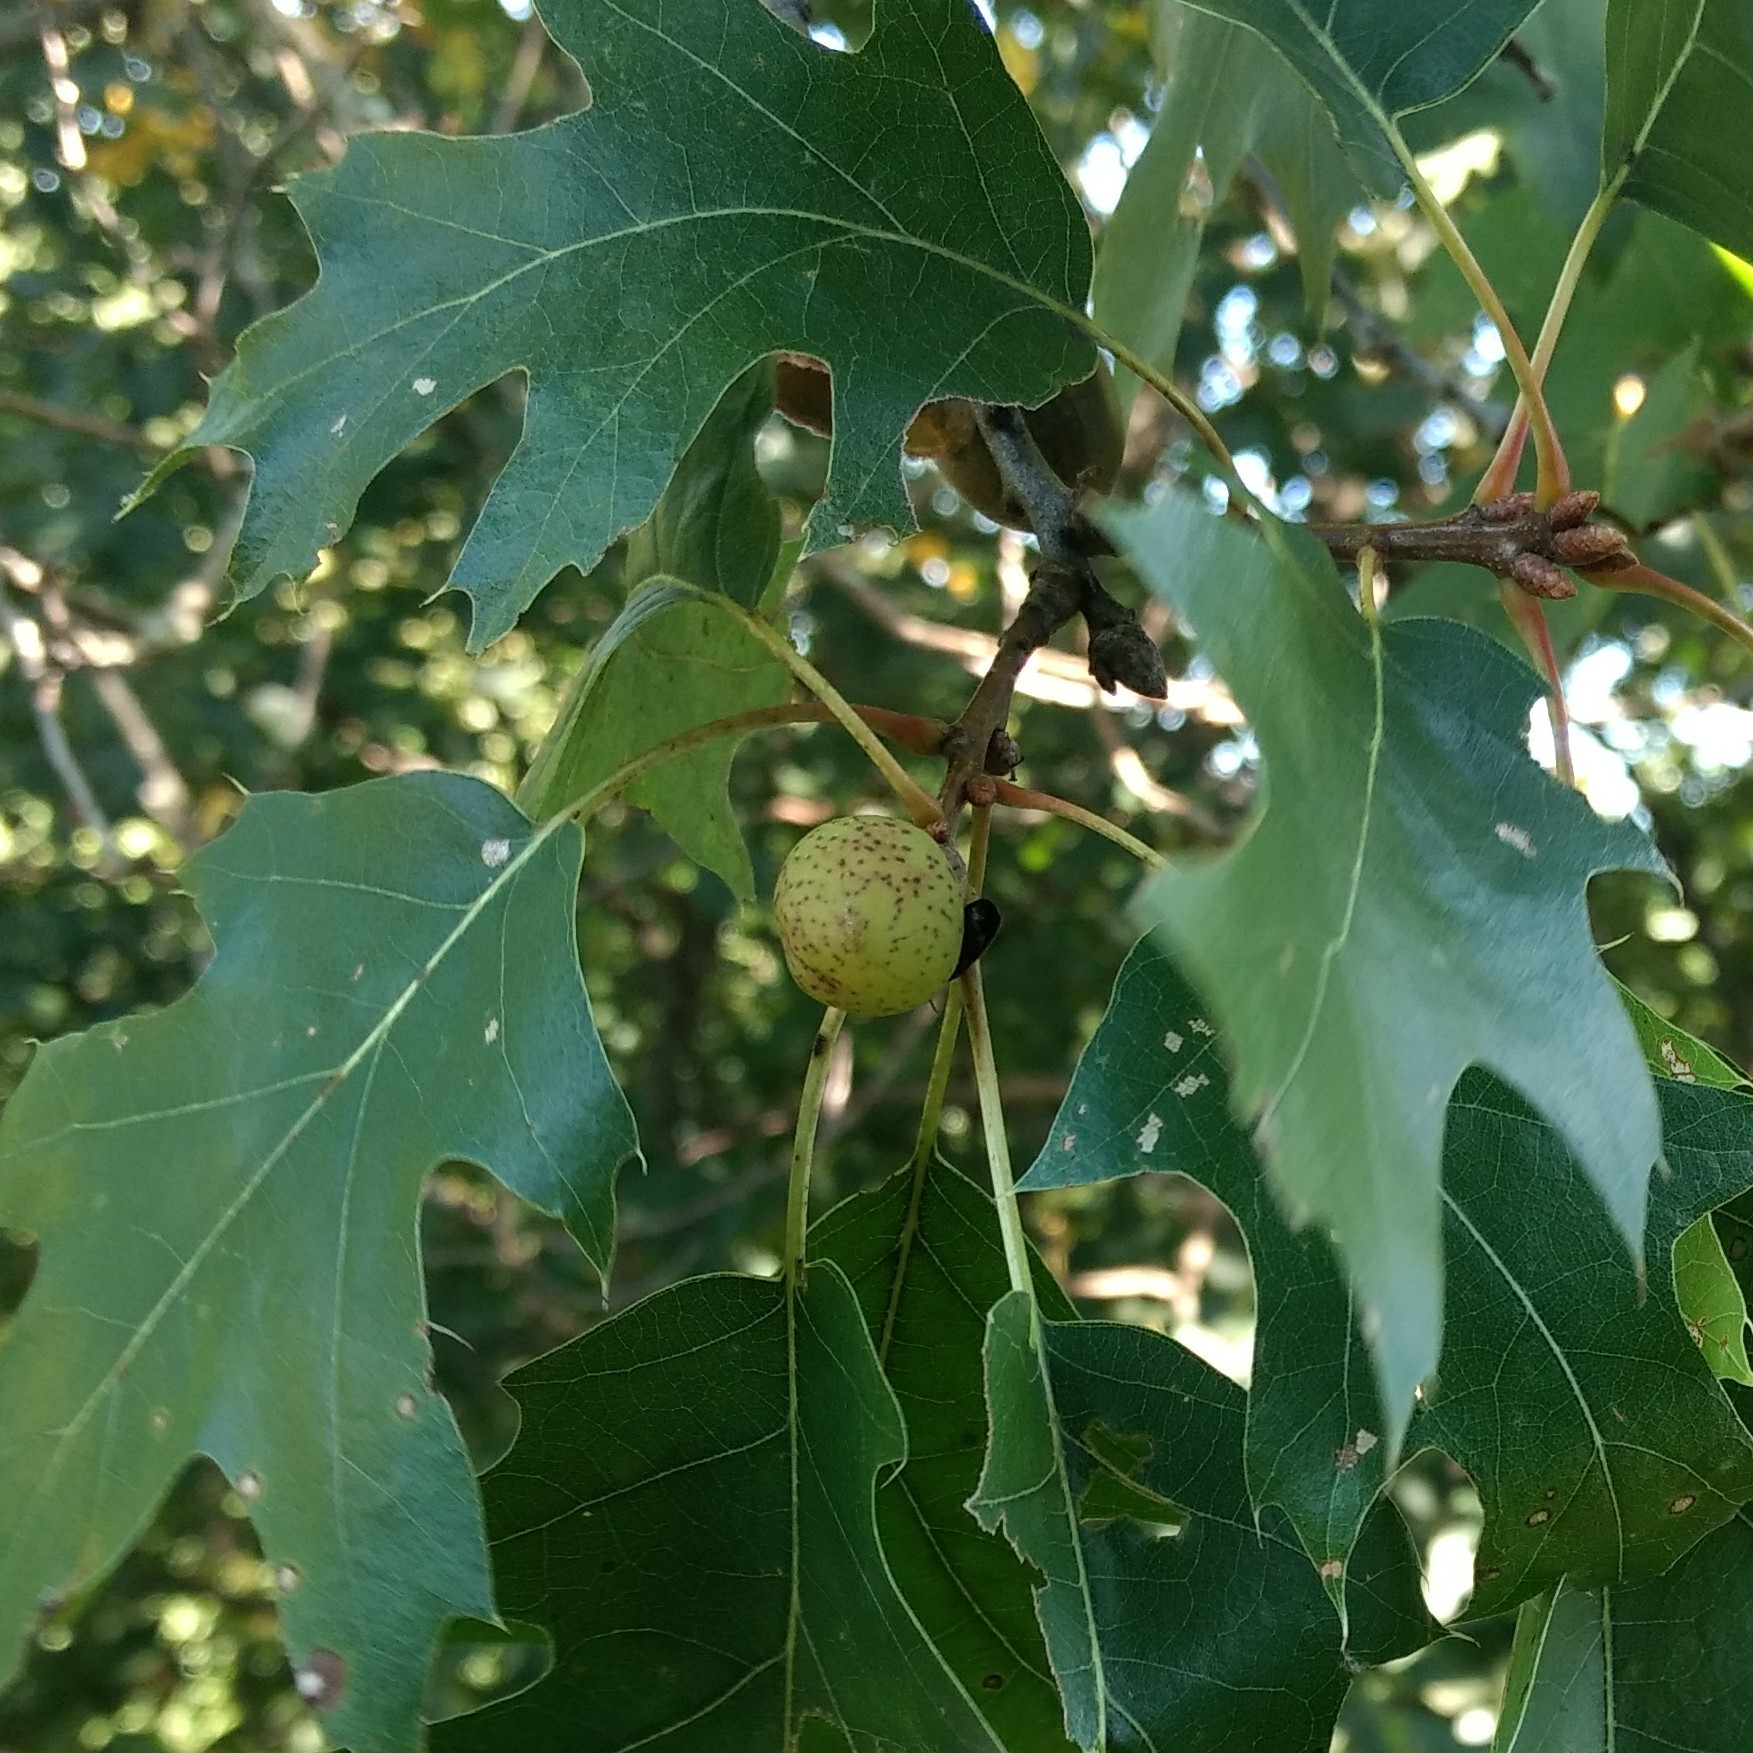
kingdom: Animalia
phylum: Arthropoda
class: Insecta
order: Hymenoptera
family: Cynipidae
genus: Amphibolips
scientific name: Amphibolips
